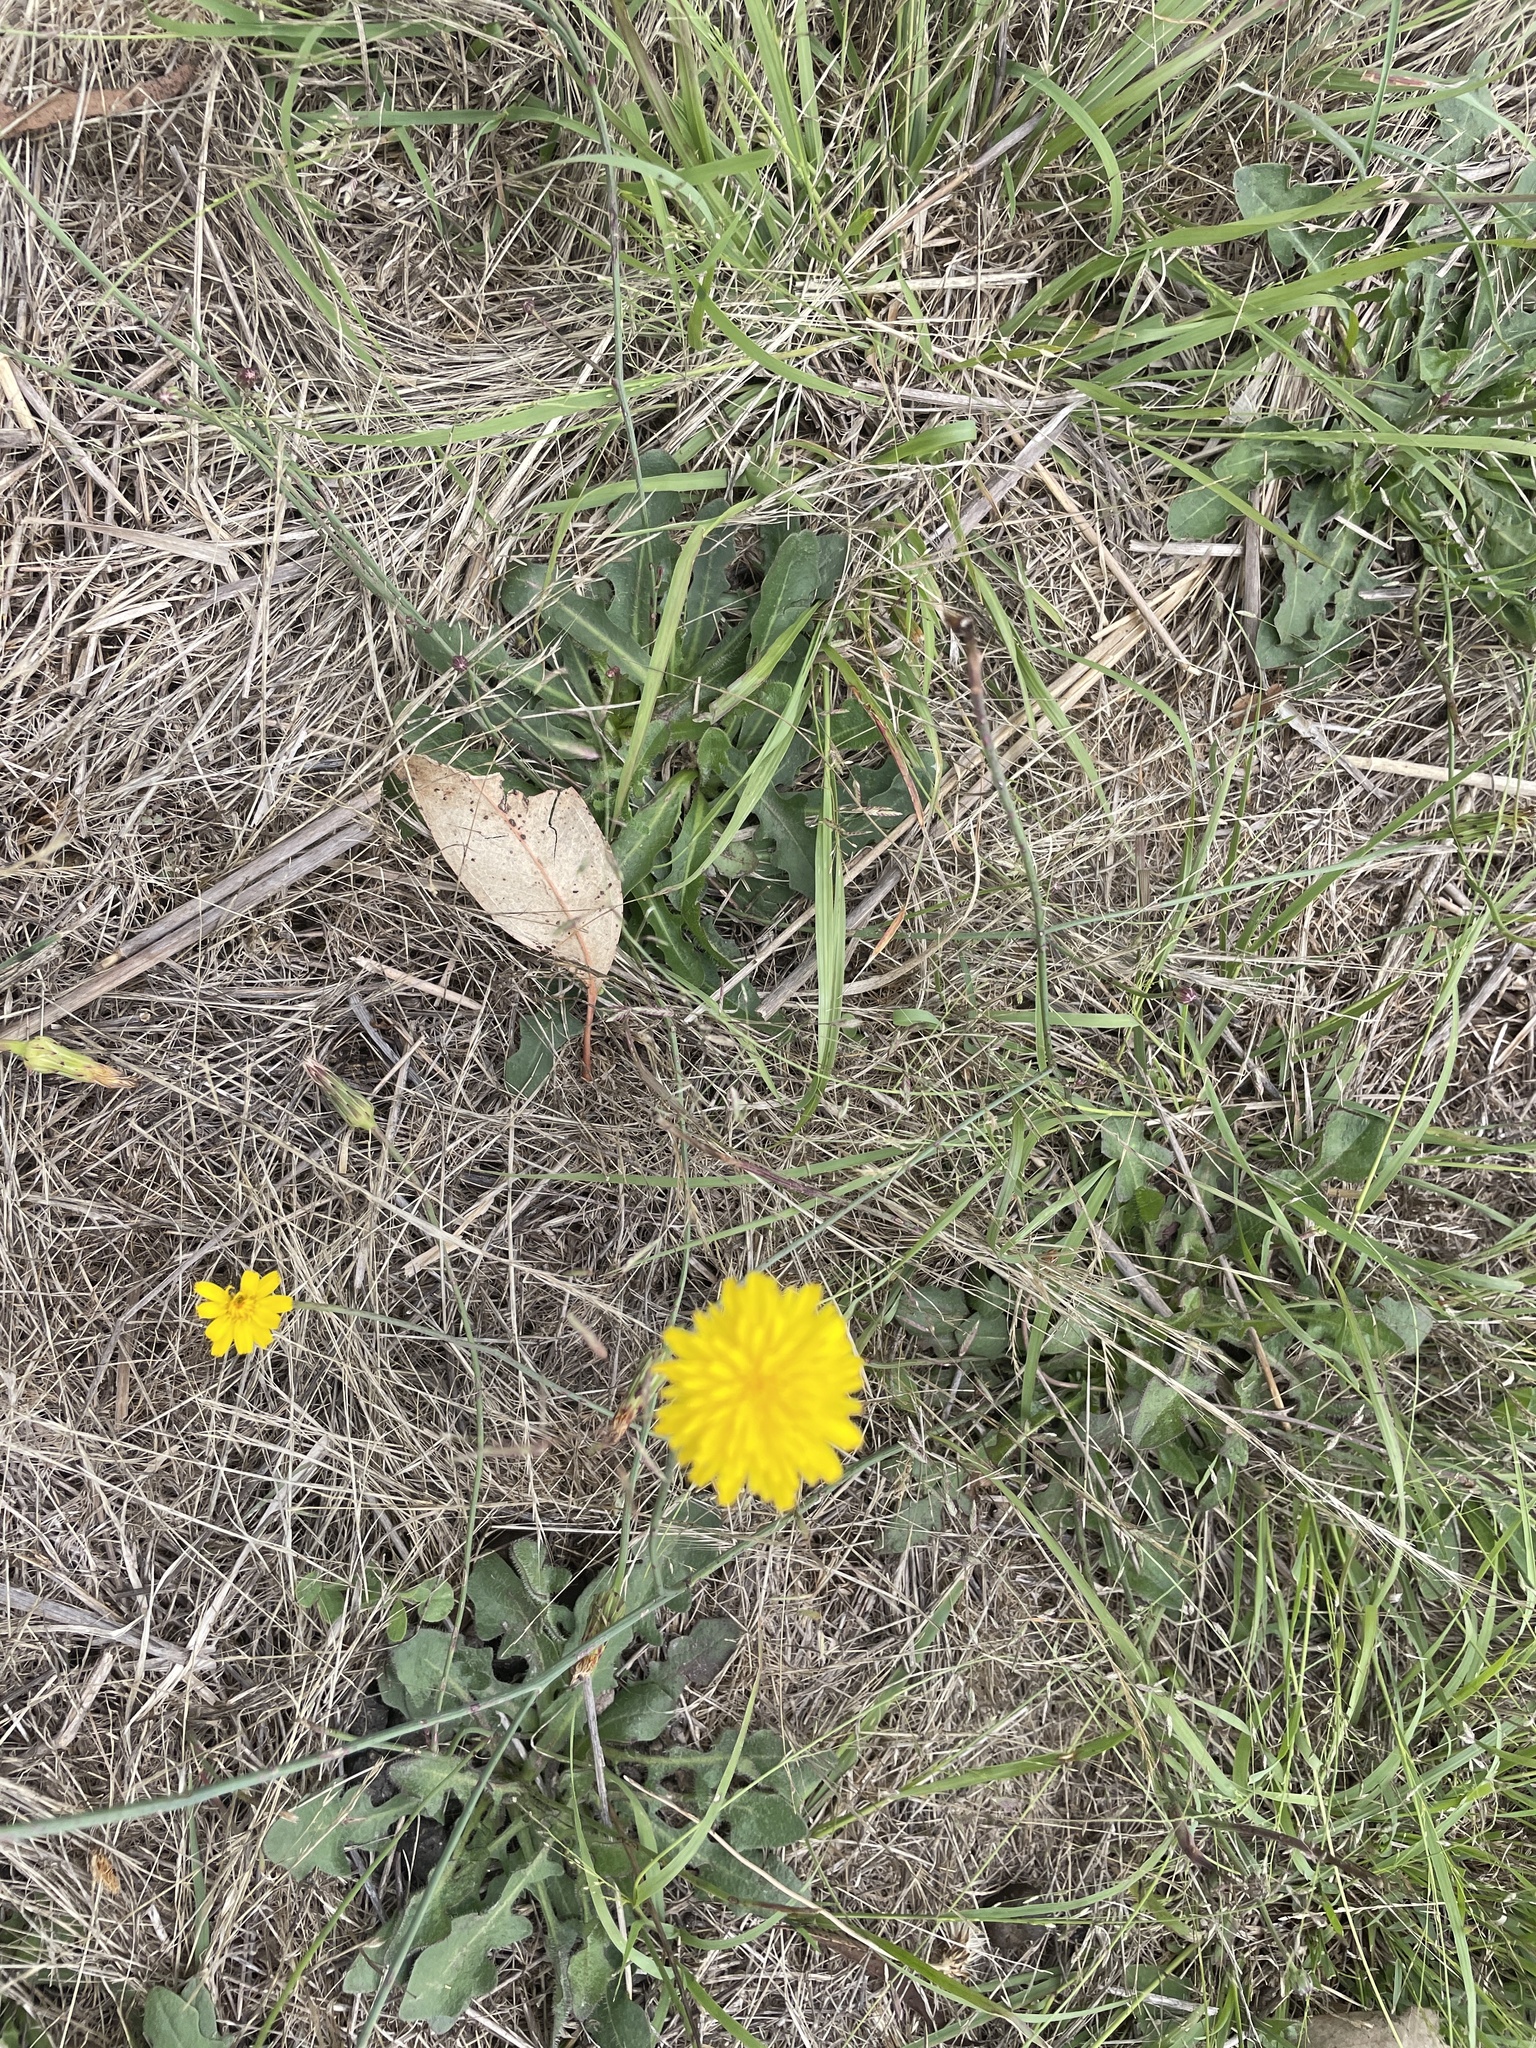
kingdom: Plantae
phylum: Tracheophyta
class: Magnoliopsida
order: Asterales
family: Asteraceae
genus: Hypochaeris
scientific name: Hypochaeris radicata
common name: Flatweed
